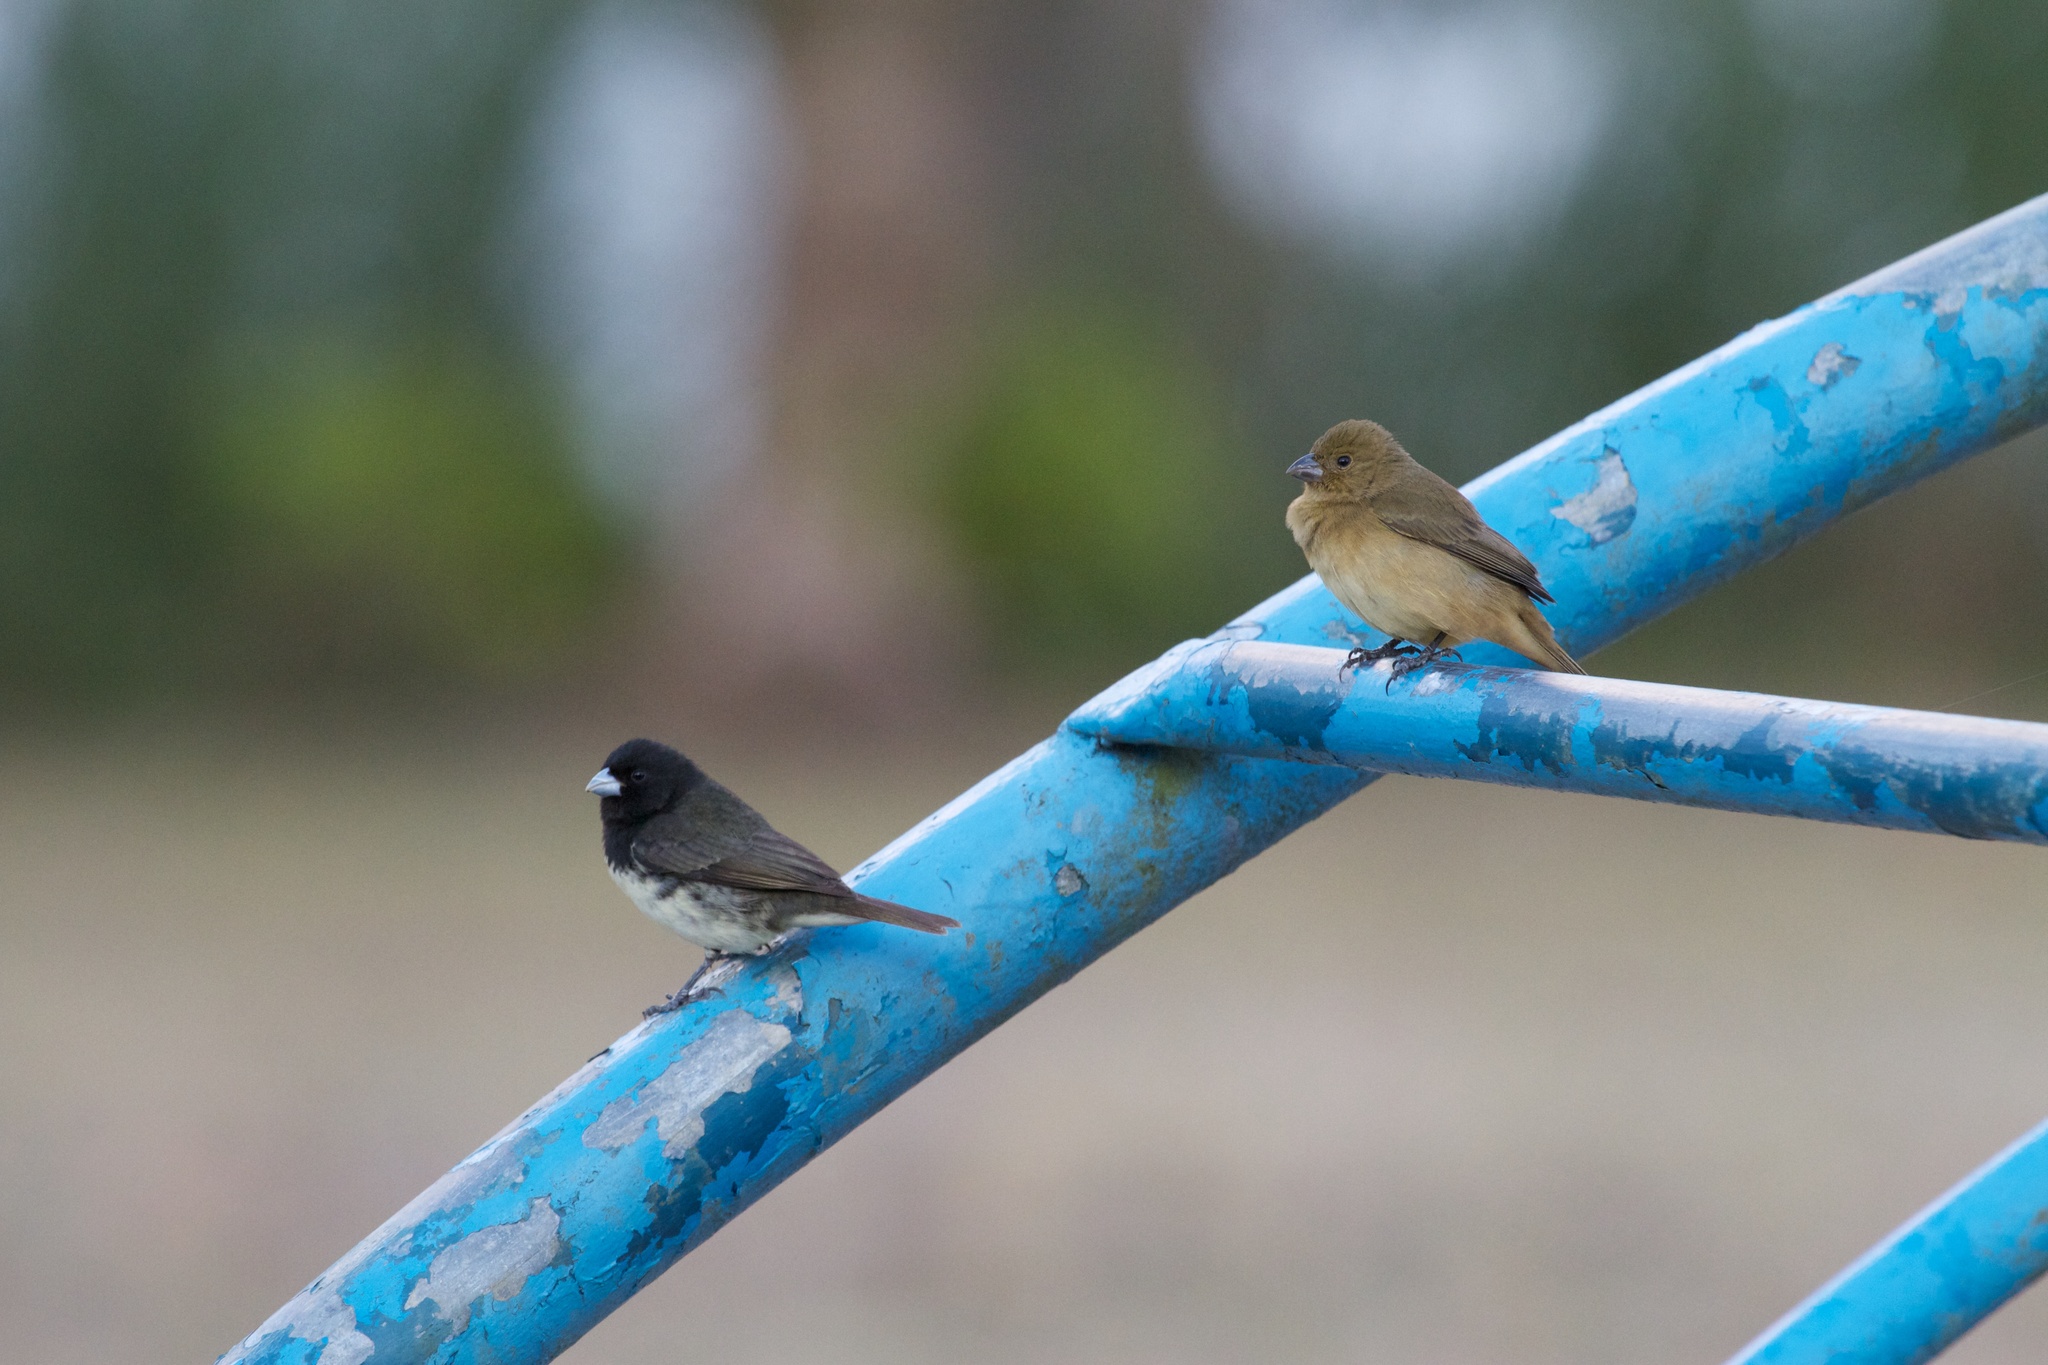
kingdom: Animalia
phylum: Chordata
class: Aves
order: Passeriformes
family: Thraupidae
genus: Sporophila
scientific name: Sporophila nigricollis
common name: Yellow-bellied seedeater
